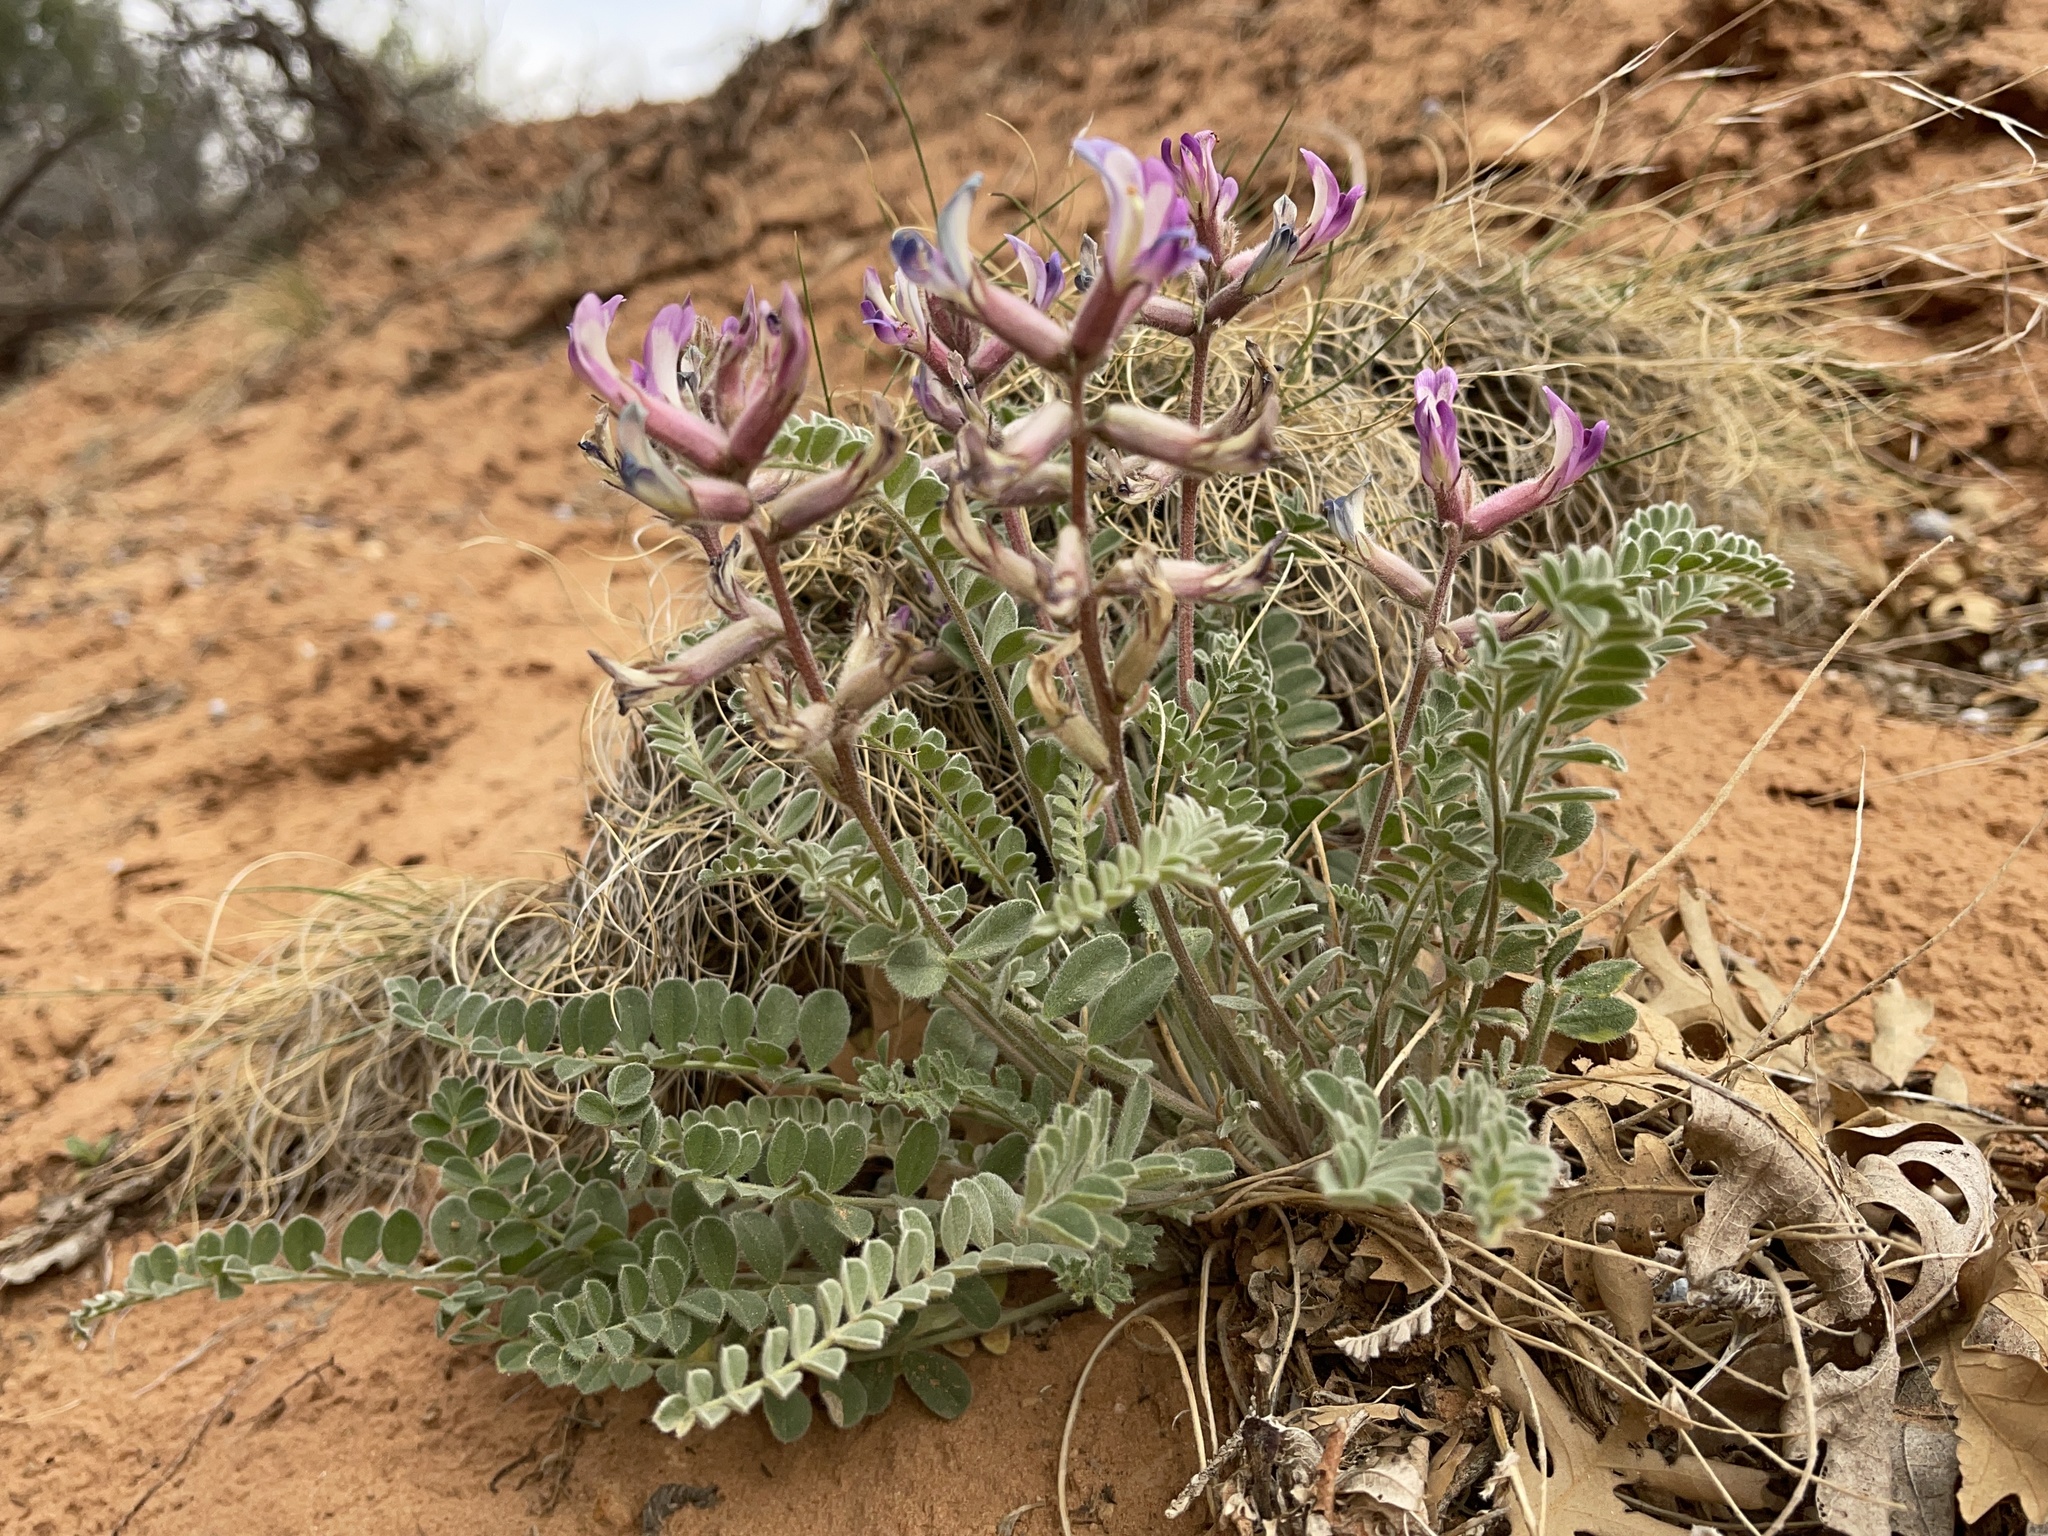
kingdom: Plantae
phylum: Tracheophyta
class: Magnoliopsida
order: Fabales
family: Fabaceae
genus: Astragalus
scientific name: Astragalus mollissimus
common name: Woolly locoweed
